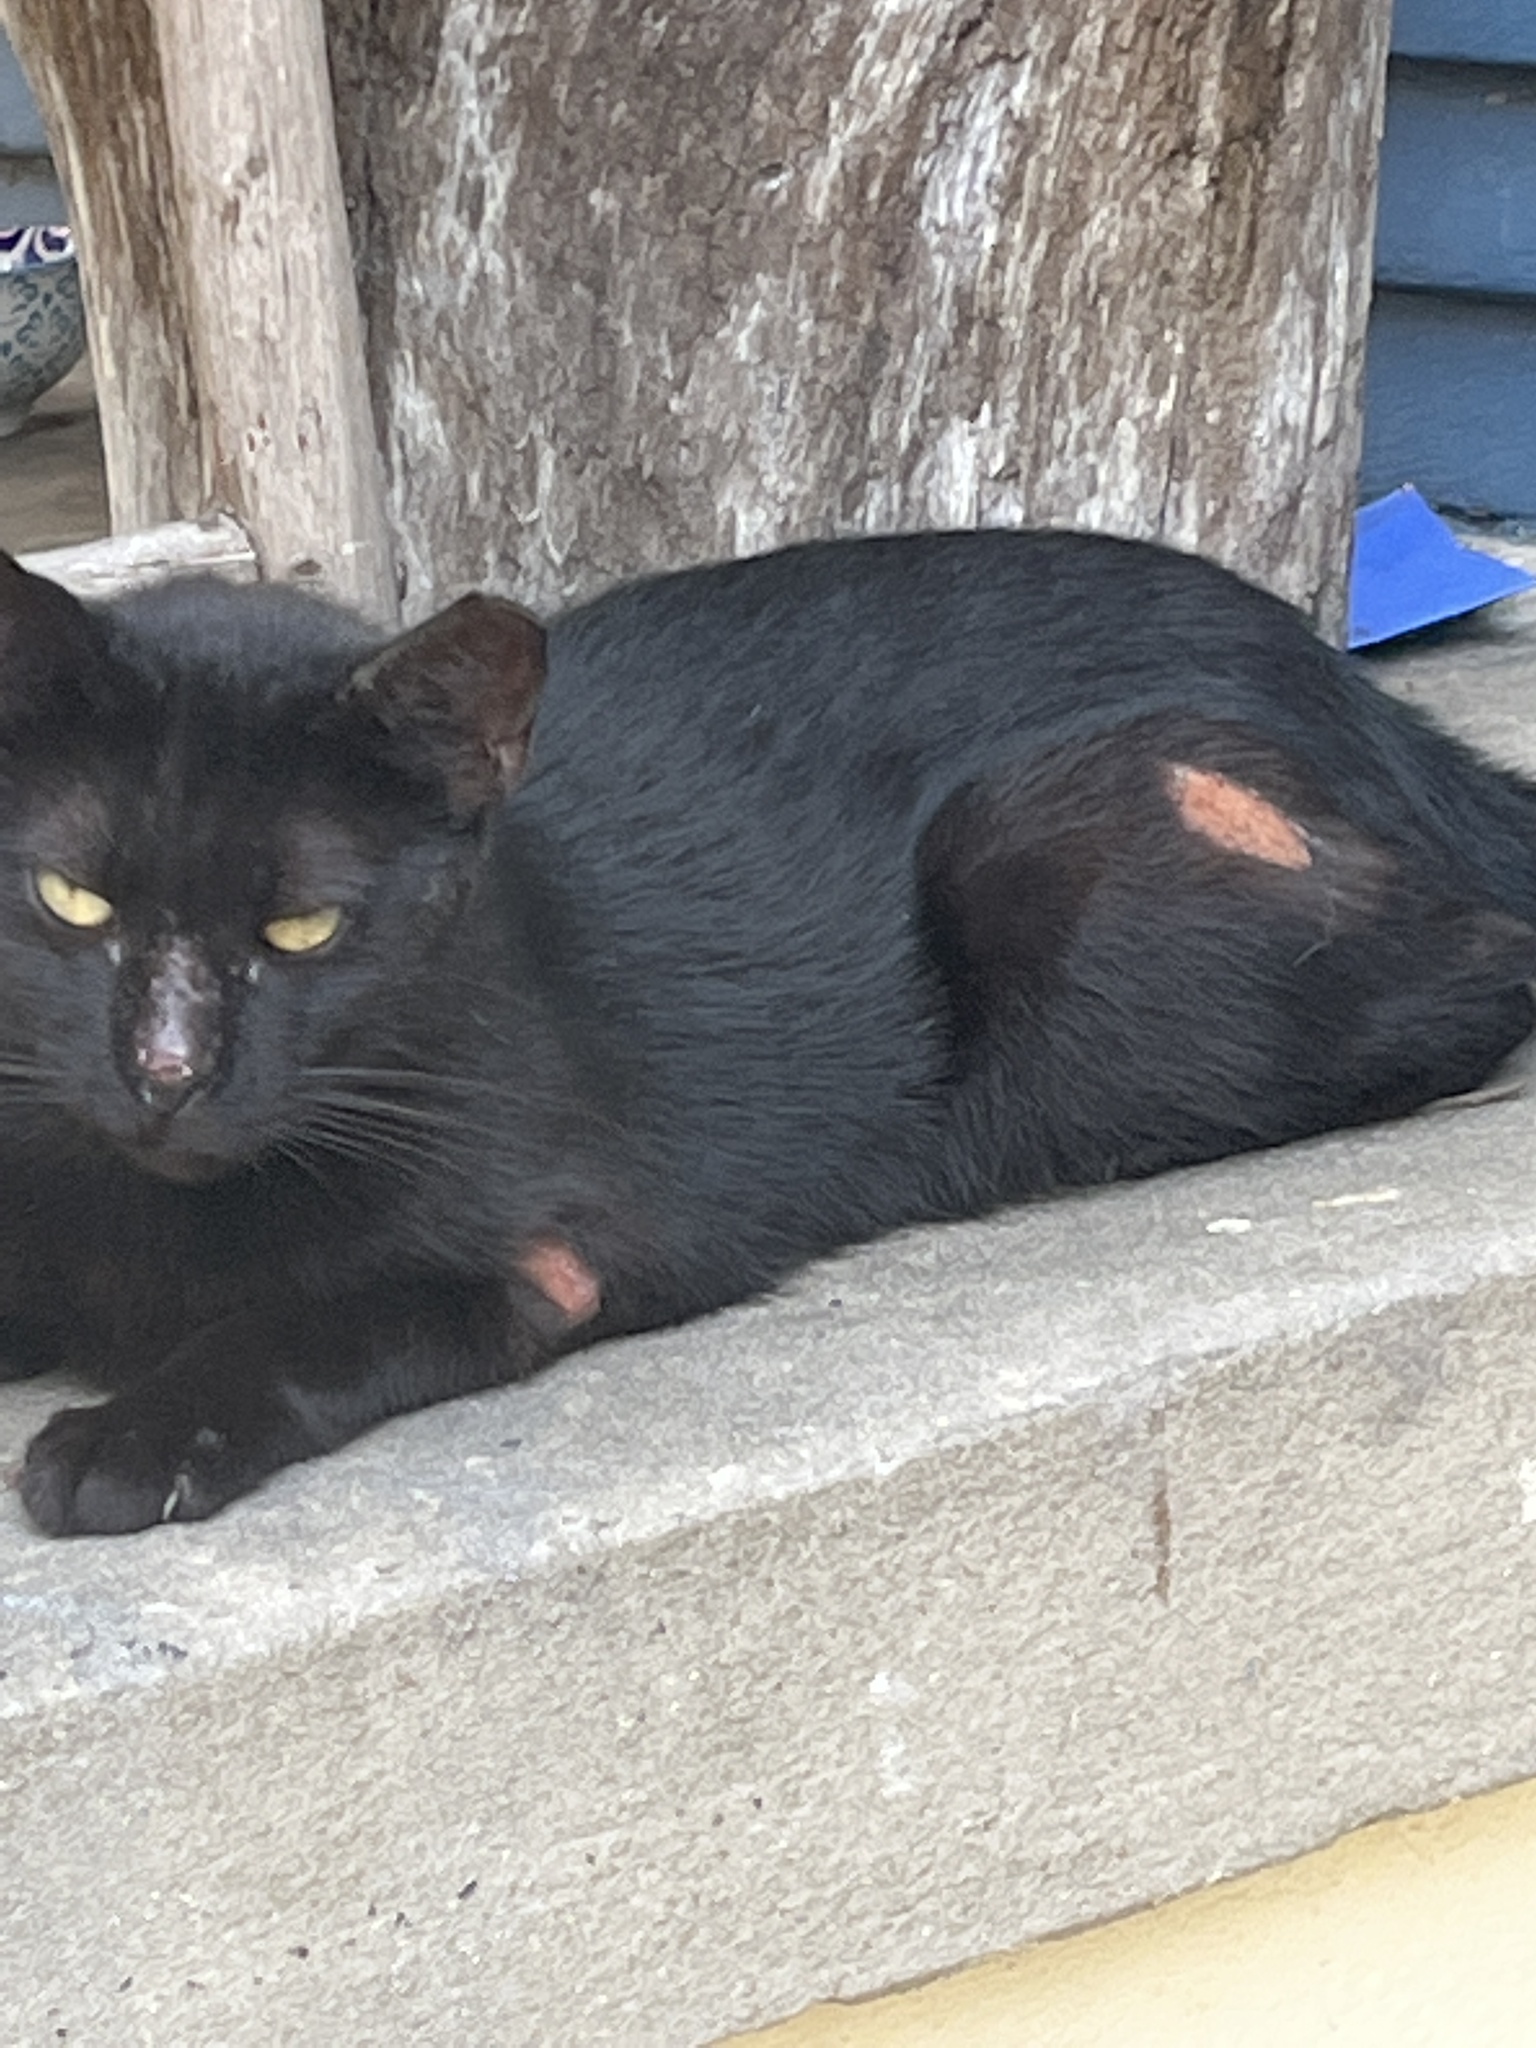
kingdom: Animalia
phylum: Chordata
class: Mammalia
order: Carnivora
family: Felidae
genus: Felis
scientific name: Felis catus
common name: Domestic cat
